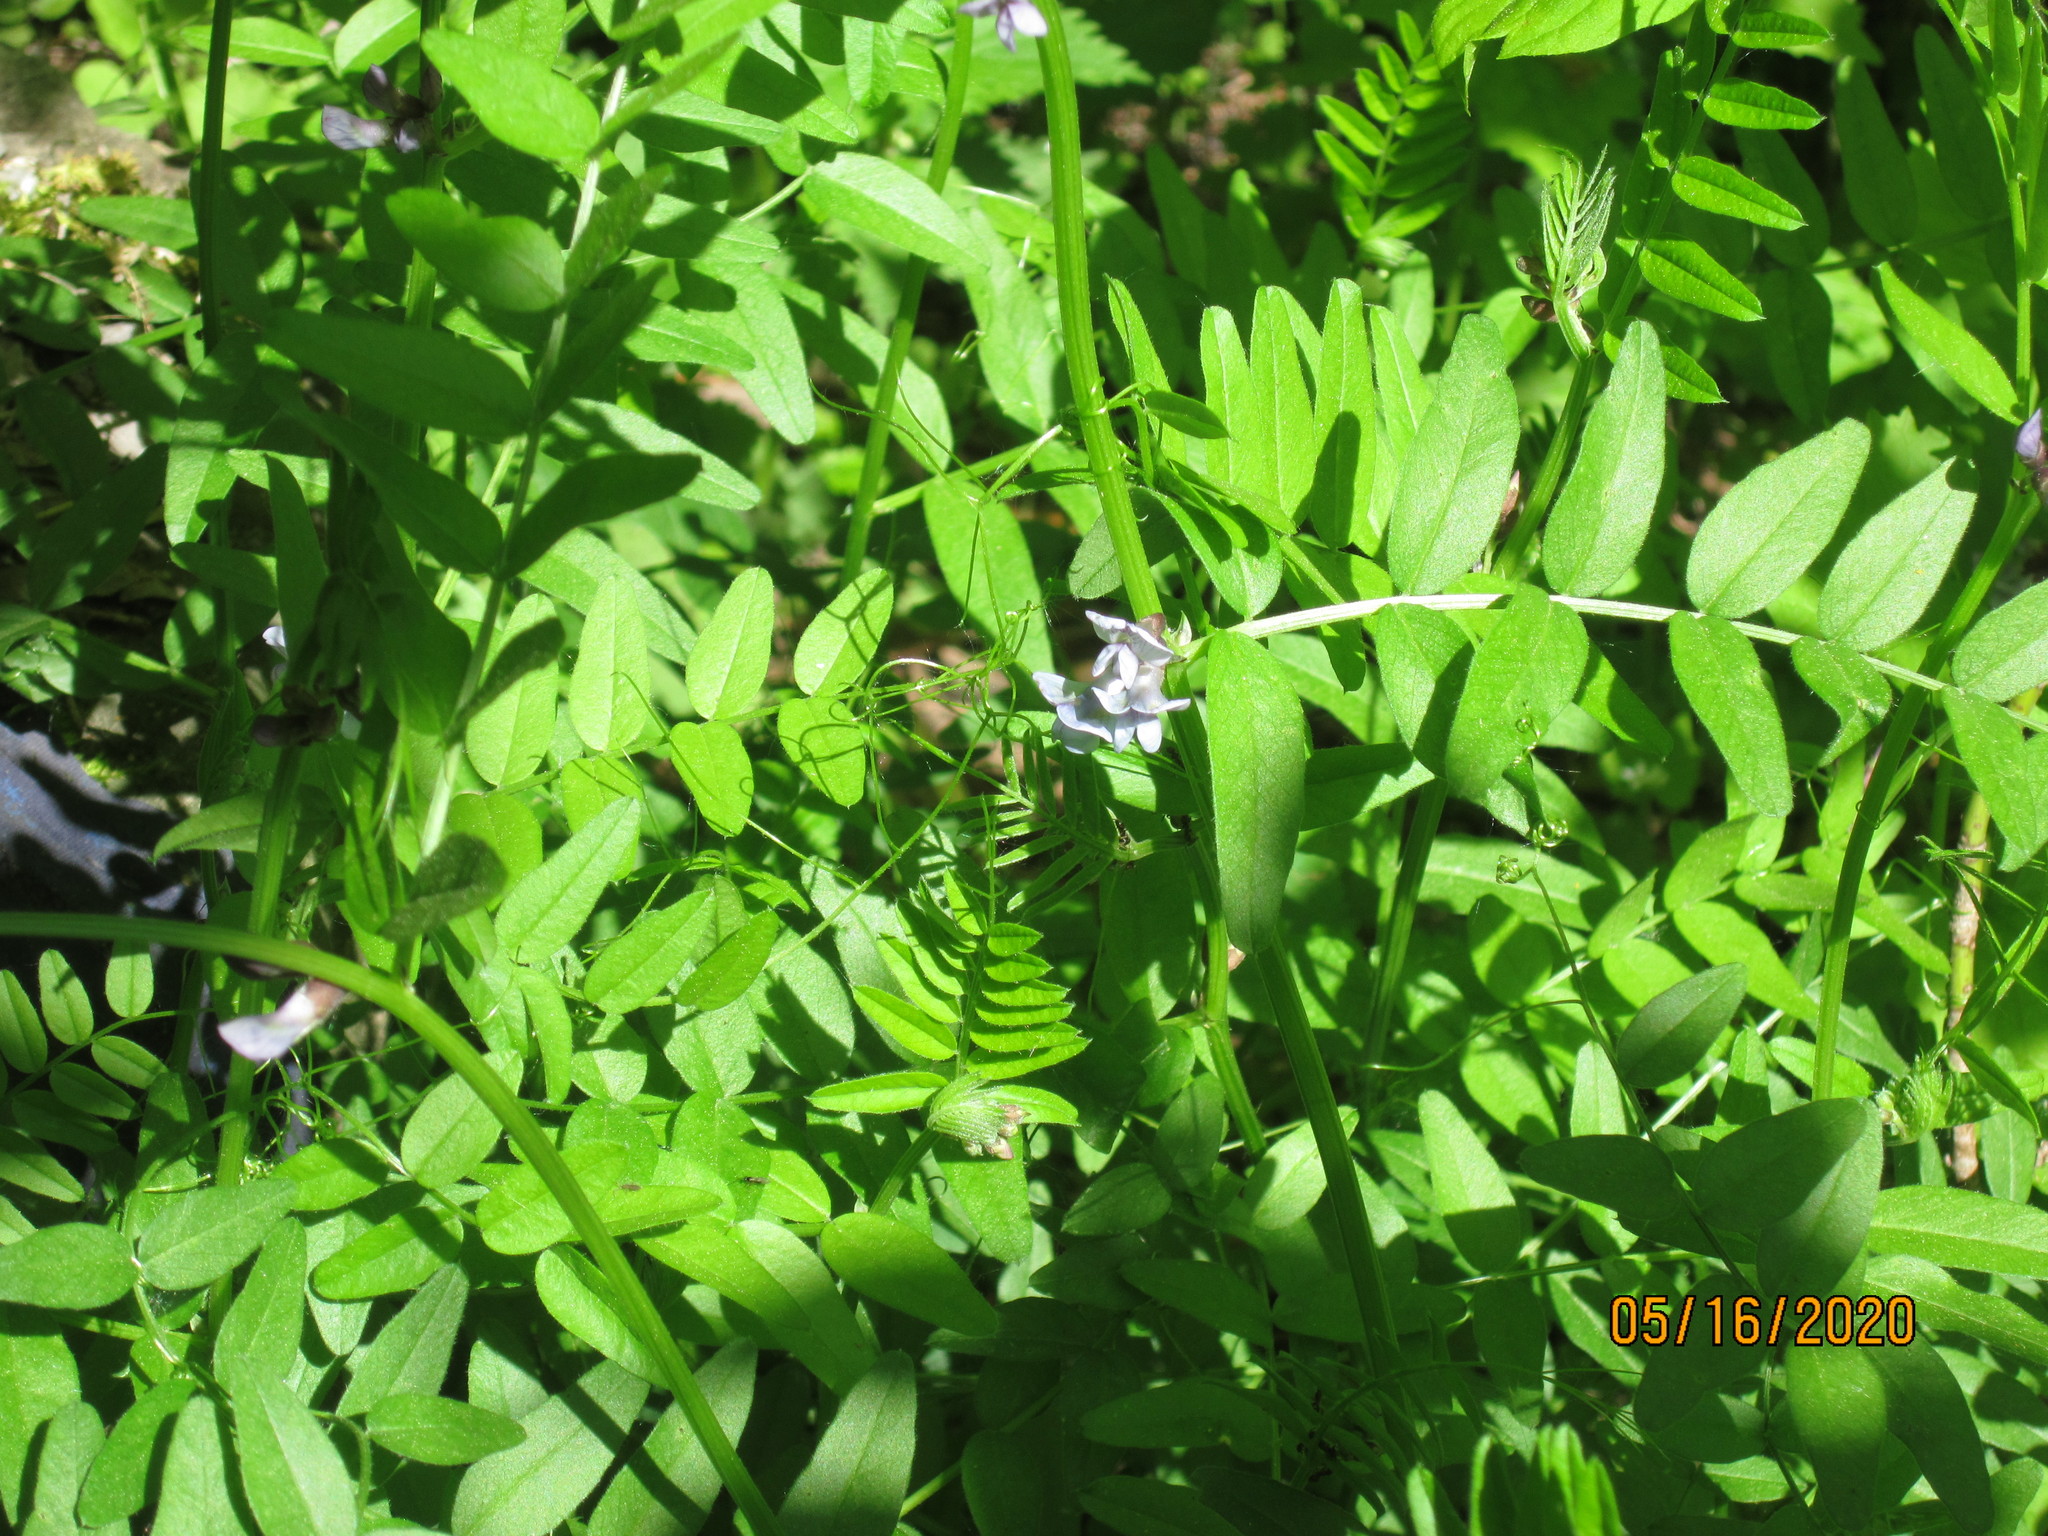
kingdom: Plantae
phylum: Tracheophyta
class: Magnoliopsida
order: Fabales
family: Fabaceae
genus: Vicia
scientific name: Vicia sepium
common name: Bush vetch
